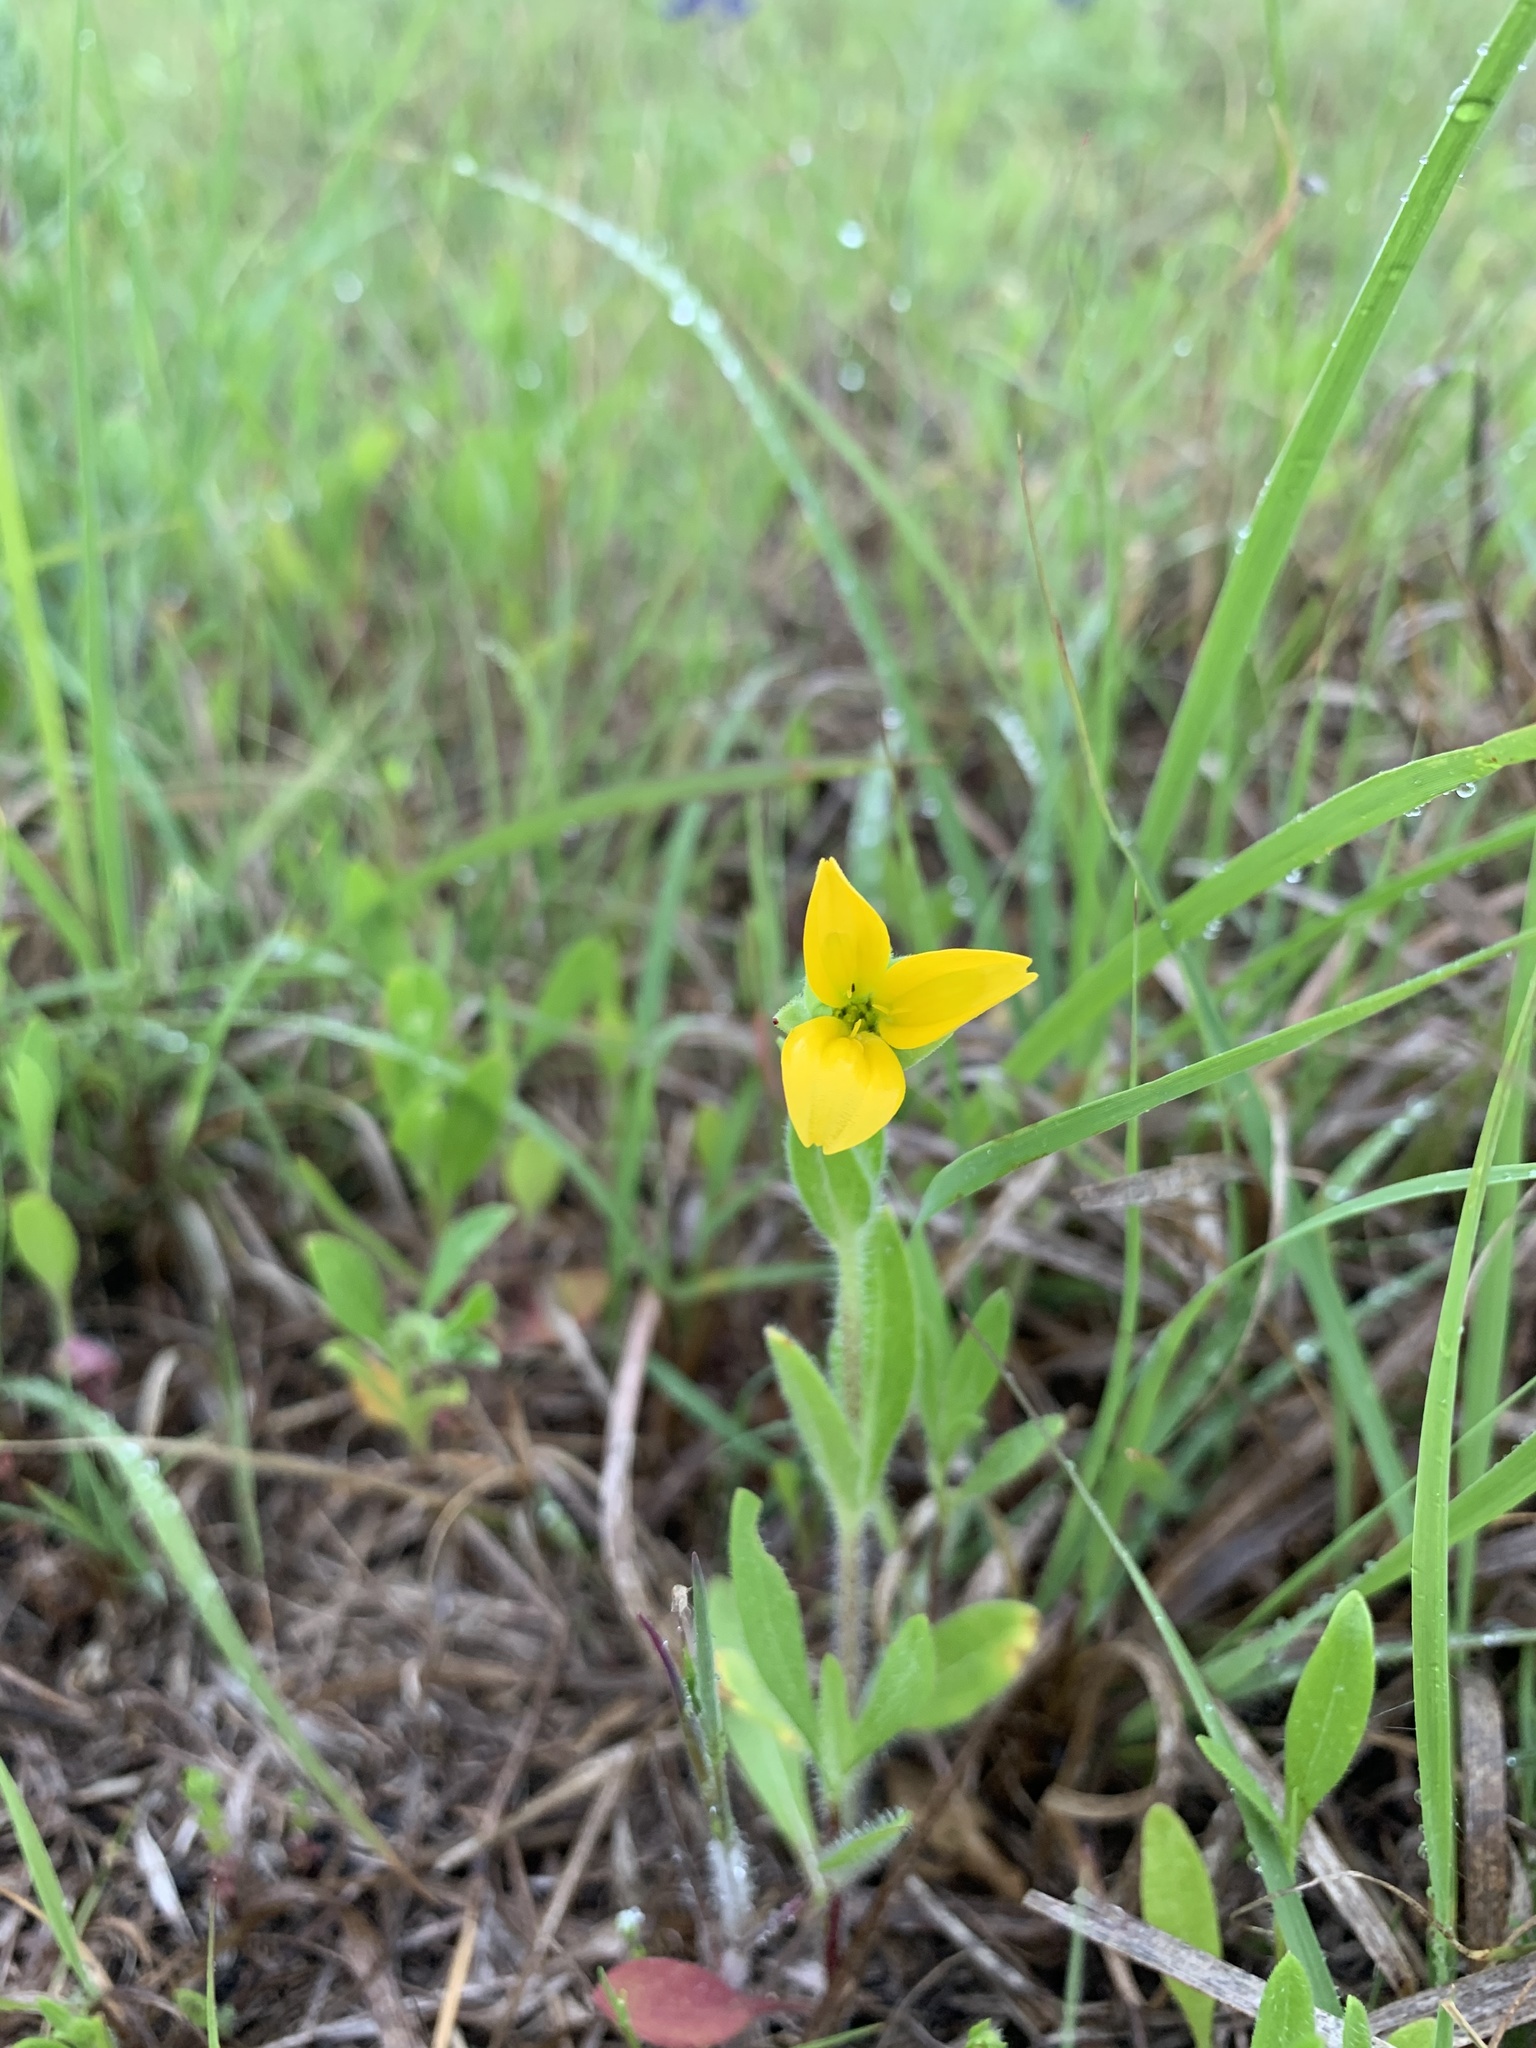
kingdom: Plantae
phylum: Tracheophyta
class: Magnoliopsida
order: Asterales
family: Asteraceae
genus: Lindheimera
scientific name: Lindheimera texana
